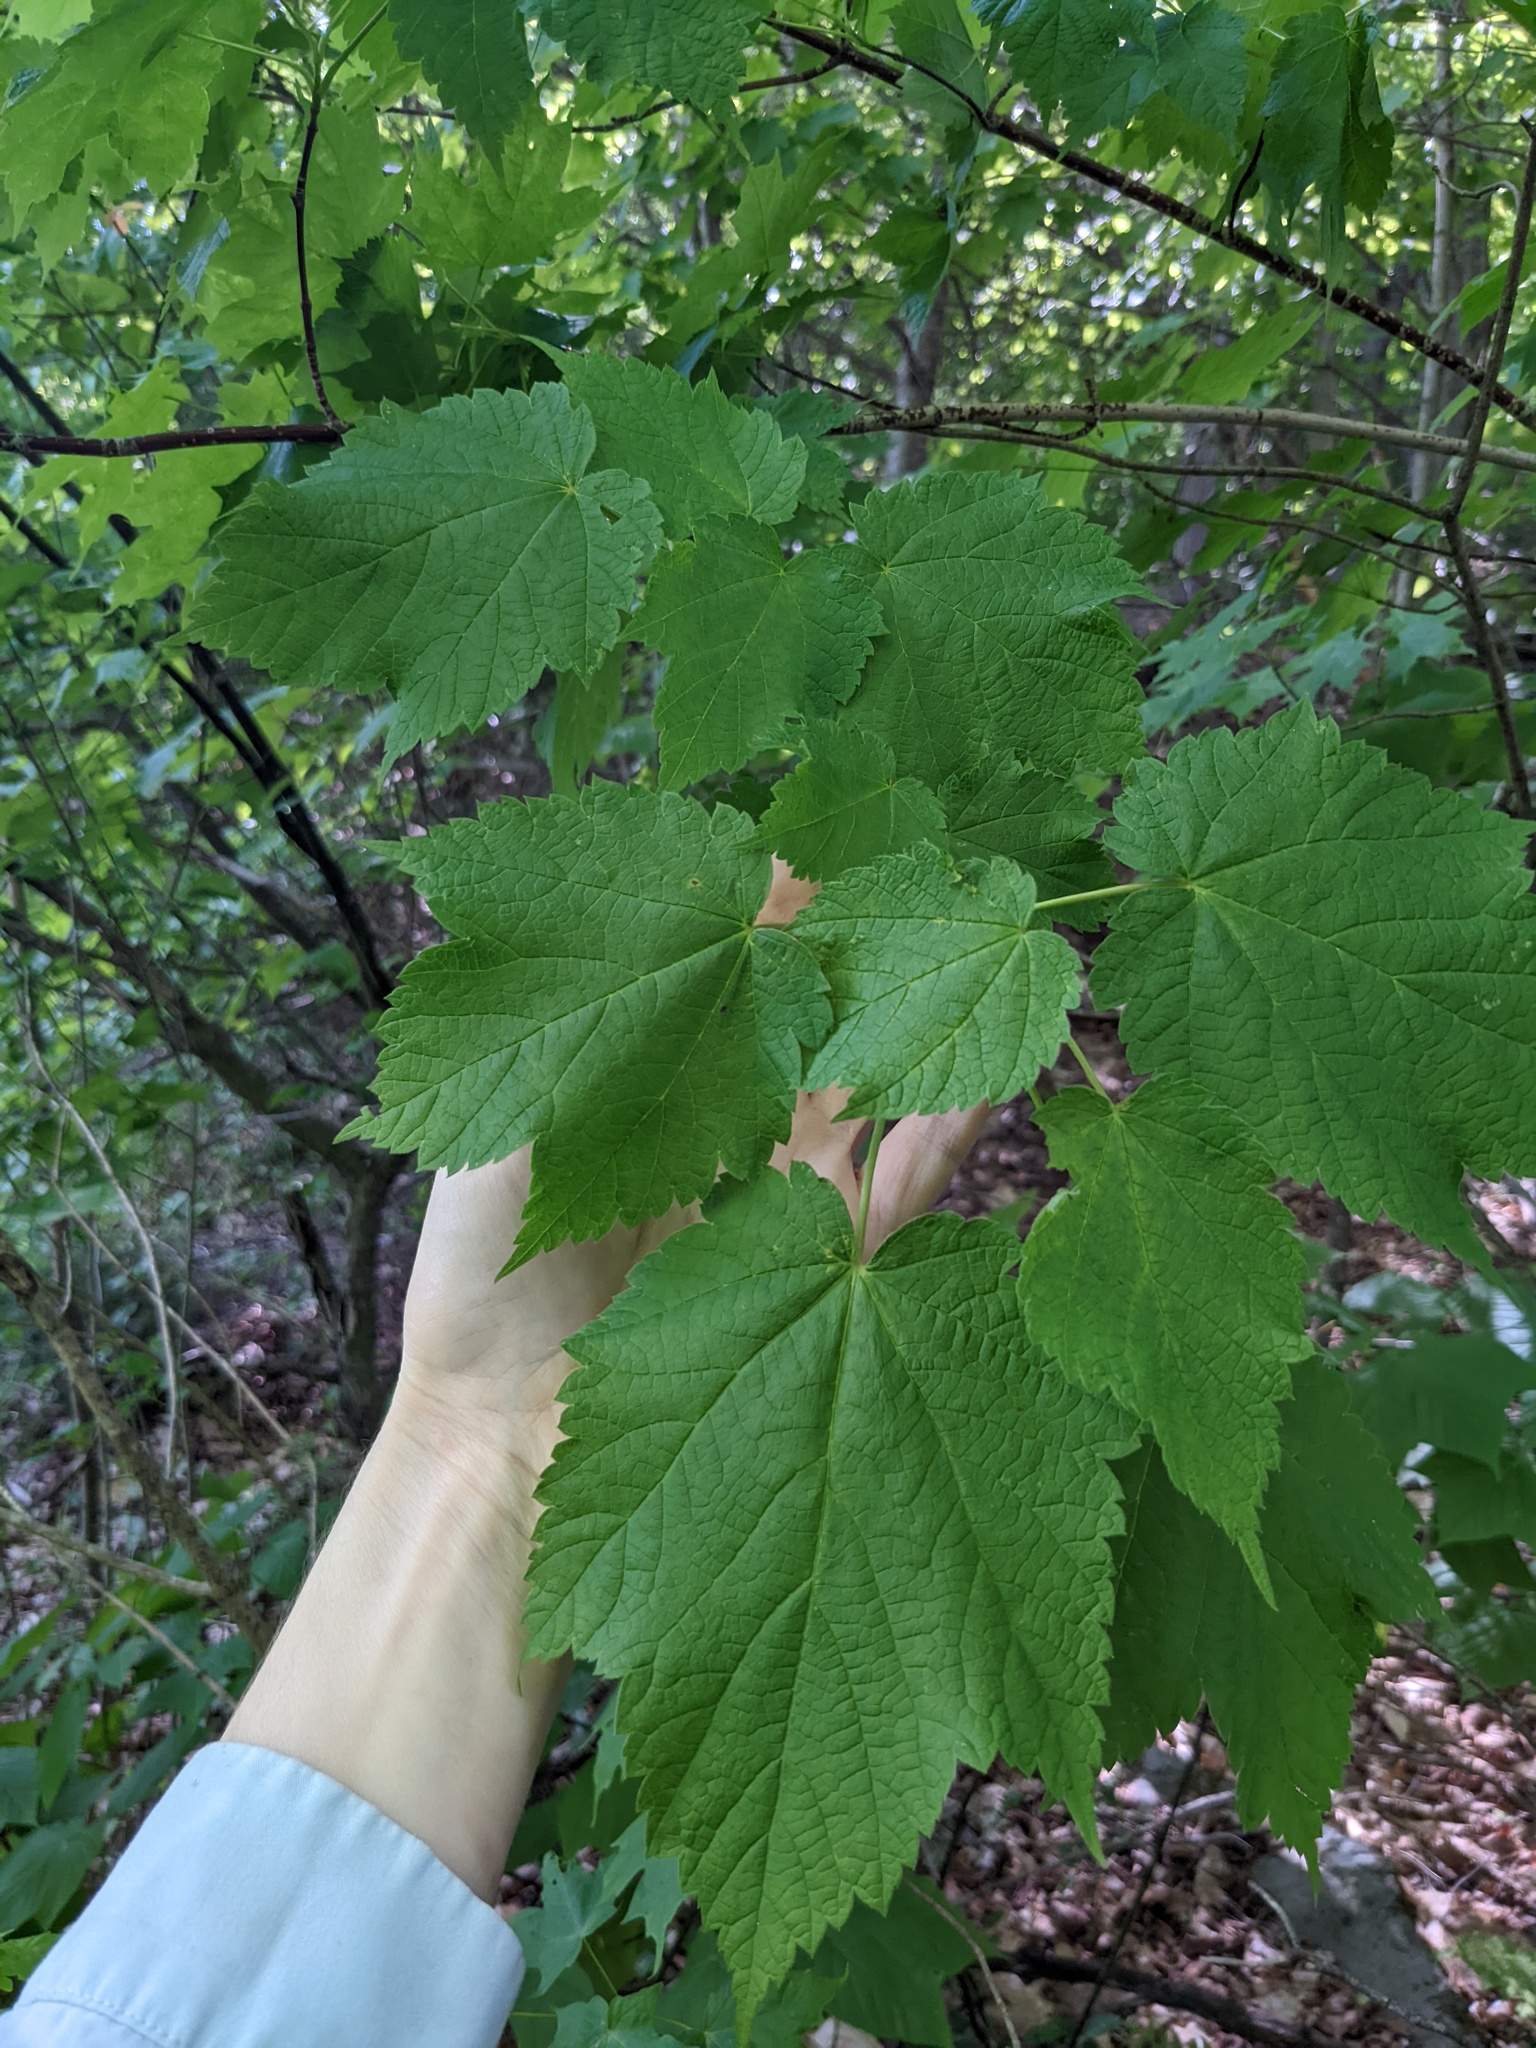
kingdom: Plantae
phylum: Tracheophyta
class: Magnoliopsida
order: Sapindales
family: Sapindaceae
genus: Acer
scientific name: Acer spicatum
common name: Mountain maple
